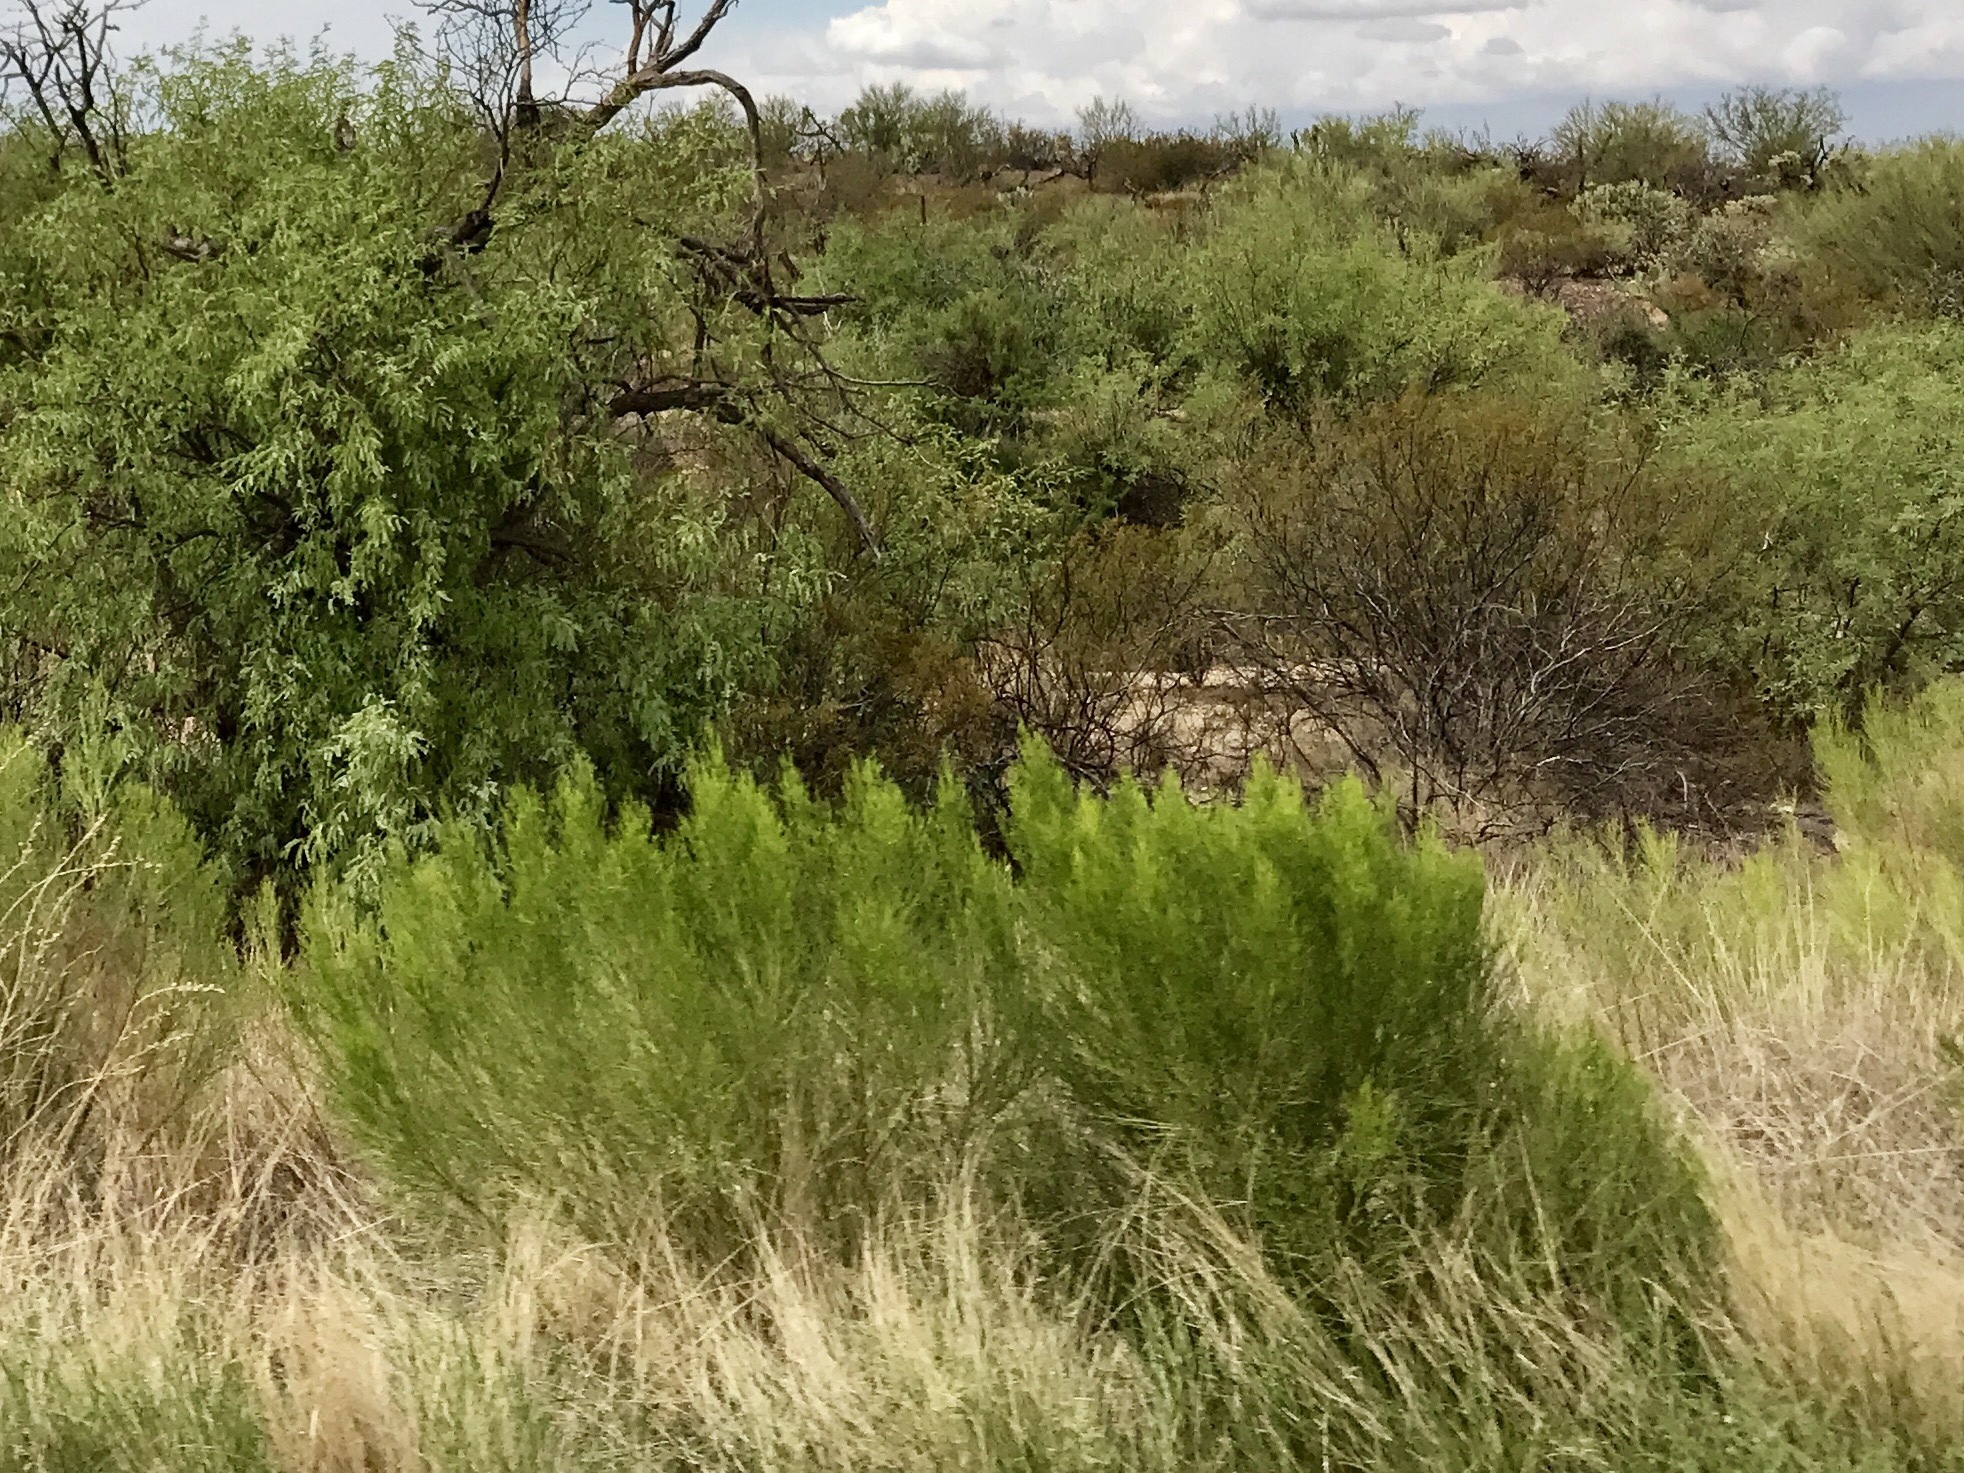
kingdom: Plantae
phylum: Tracheophyta
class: Magnoliopsida
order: Asterales
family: Asteraceae
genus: Baccharis
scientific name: Baccharis sarothroides
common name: Desert-broom
